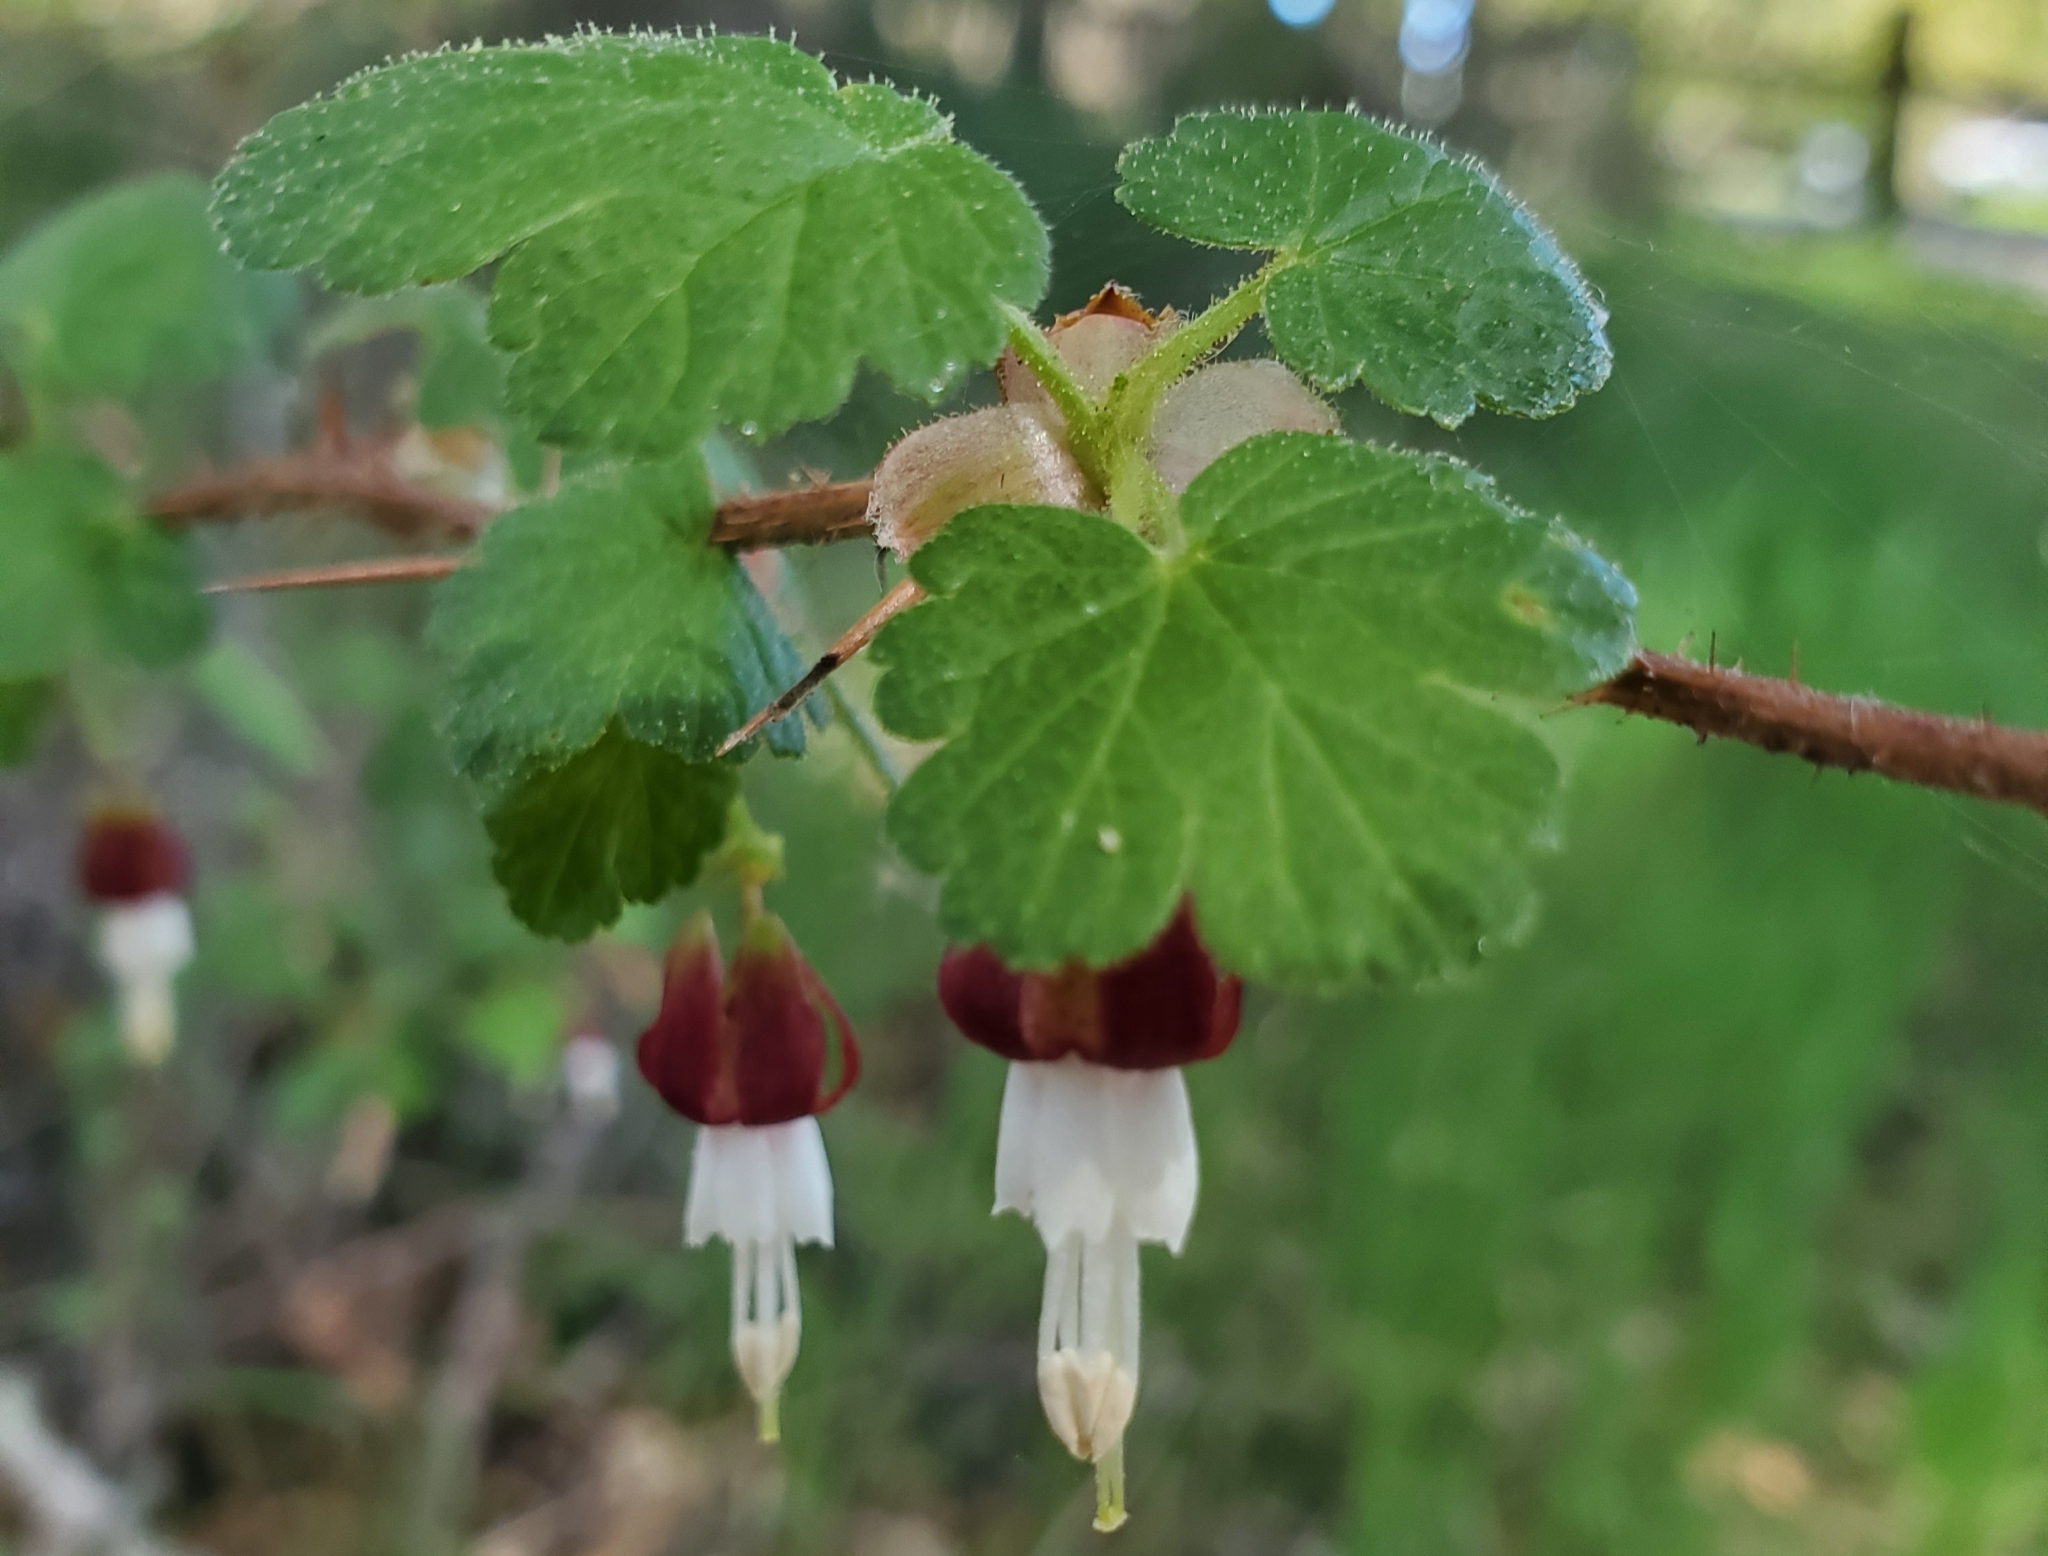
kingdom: Plantae
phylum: Tracheophyta
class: Magnoliopsida
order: Saxifragales
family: Grossulariaceae
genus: Ribes
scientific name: Ribes menziesii
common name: Canyon gooseberry
